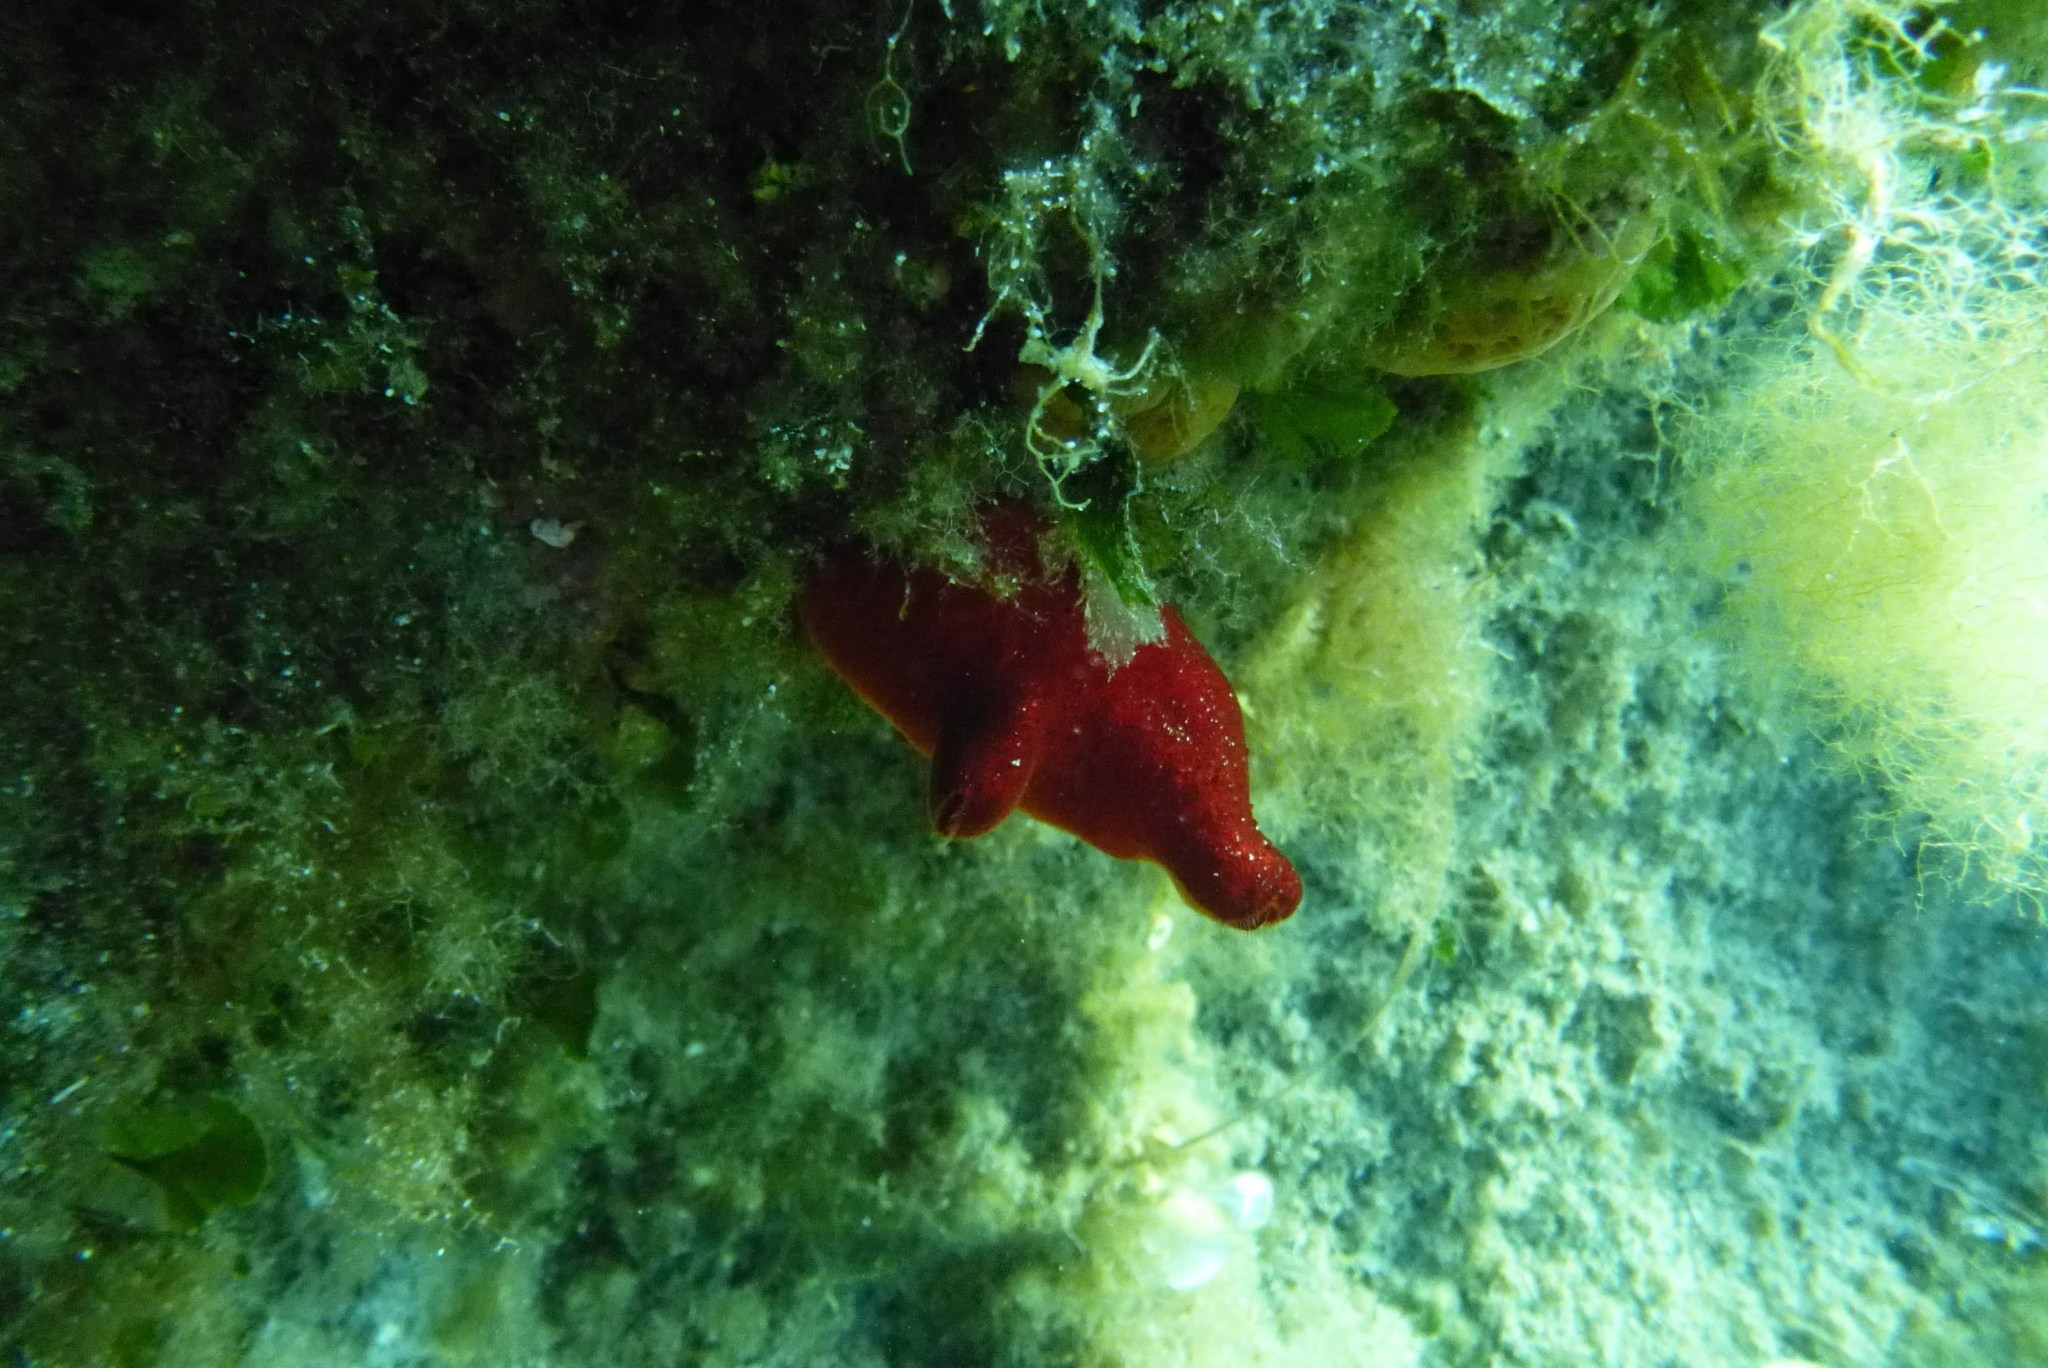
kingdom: Animalia
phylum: Chordata
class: Ascidiacea
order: Stolidobranchia
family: Pyuridae
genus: Halocynthia
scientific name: Halocynthia papillosa
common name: Red sea-squirt
